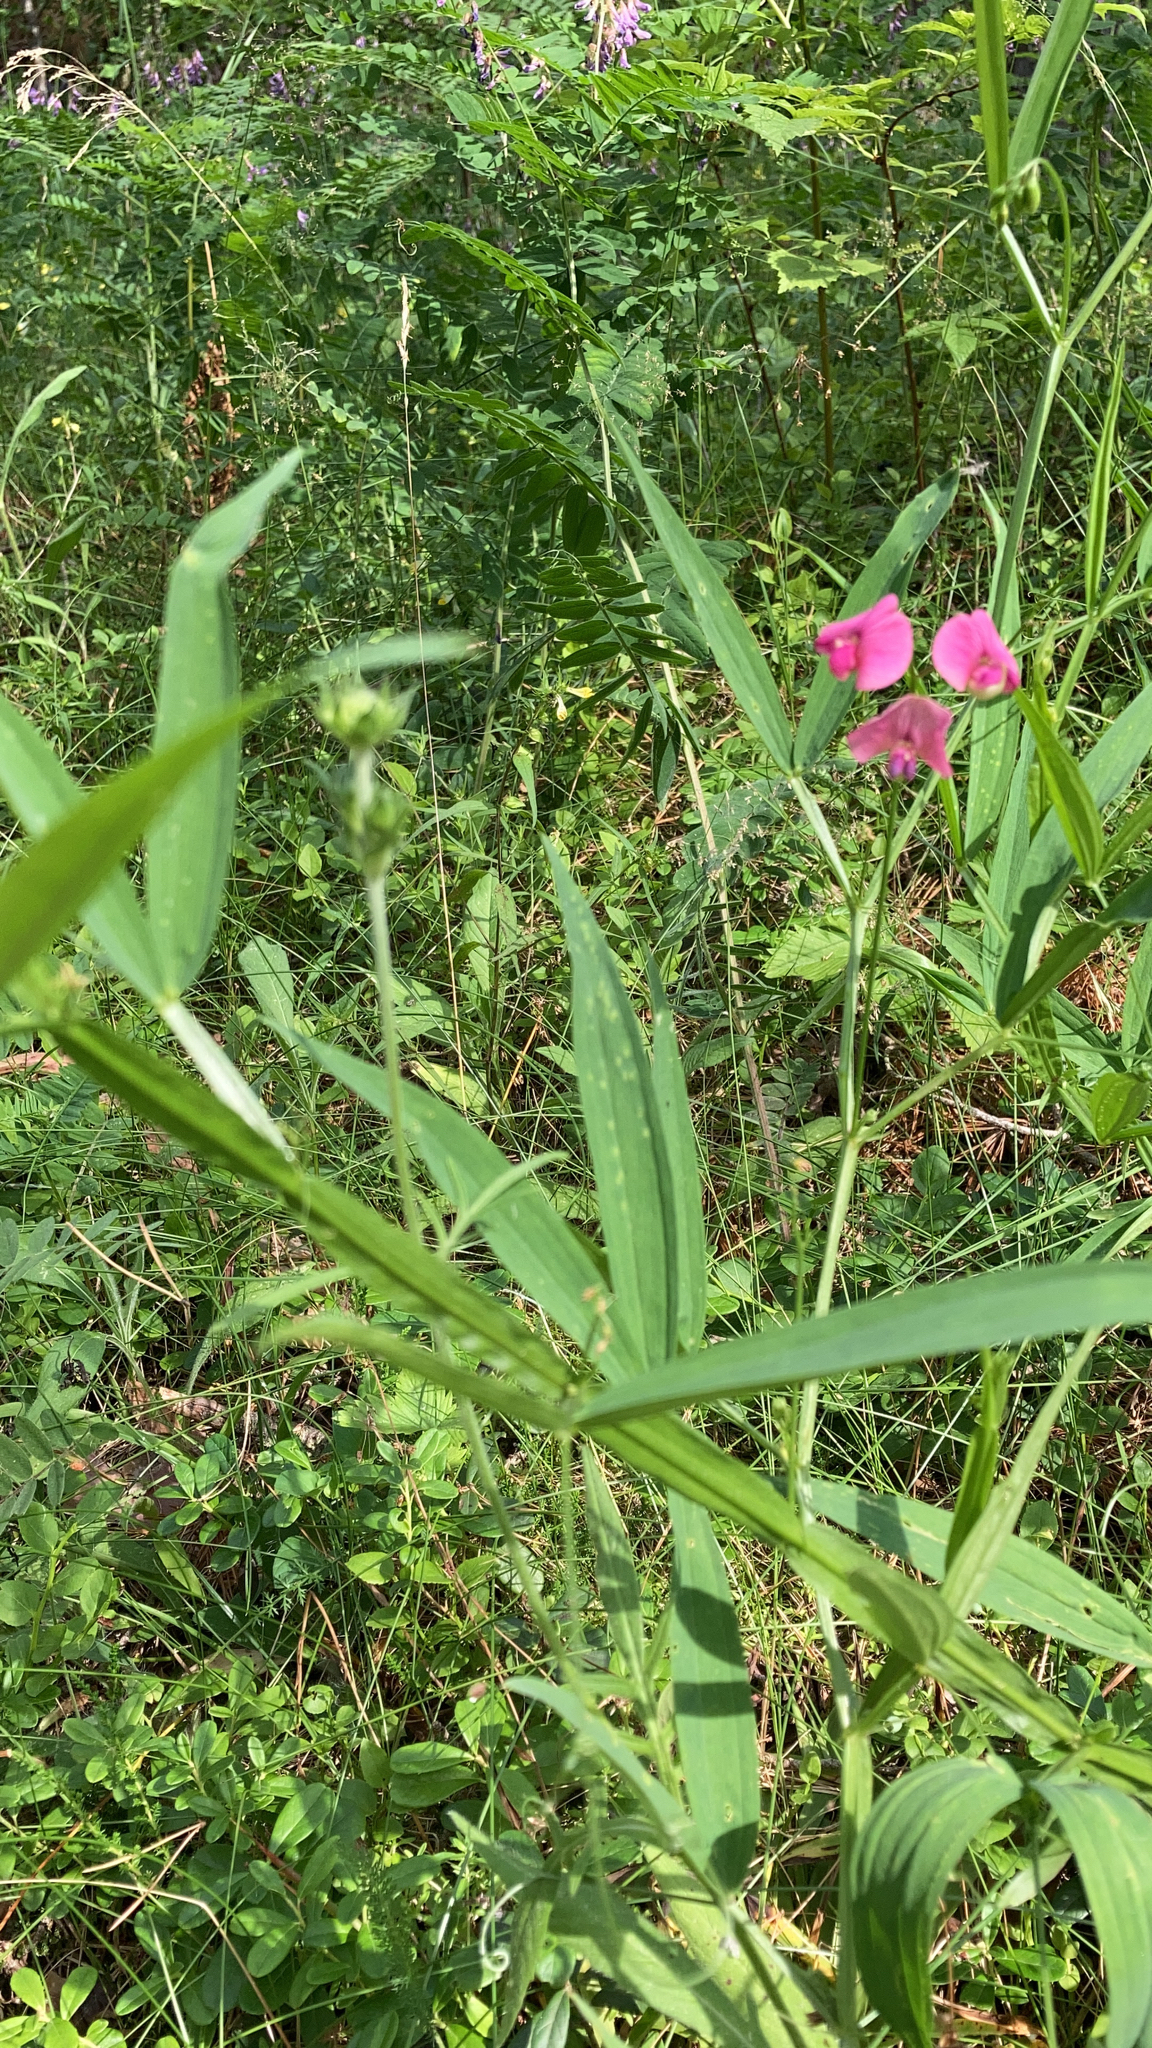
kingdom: Plantae
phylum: Tracheophyta
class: Magnoliopsida
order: Fabales
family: Fabaceae
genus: Lathyrus
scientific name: Lathyrus sylvestris
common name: Flat pea
